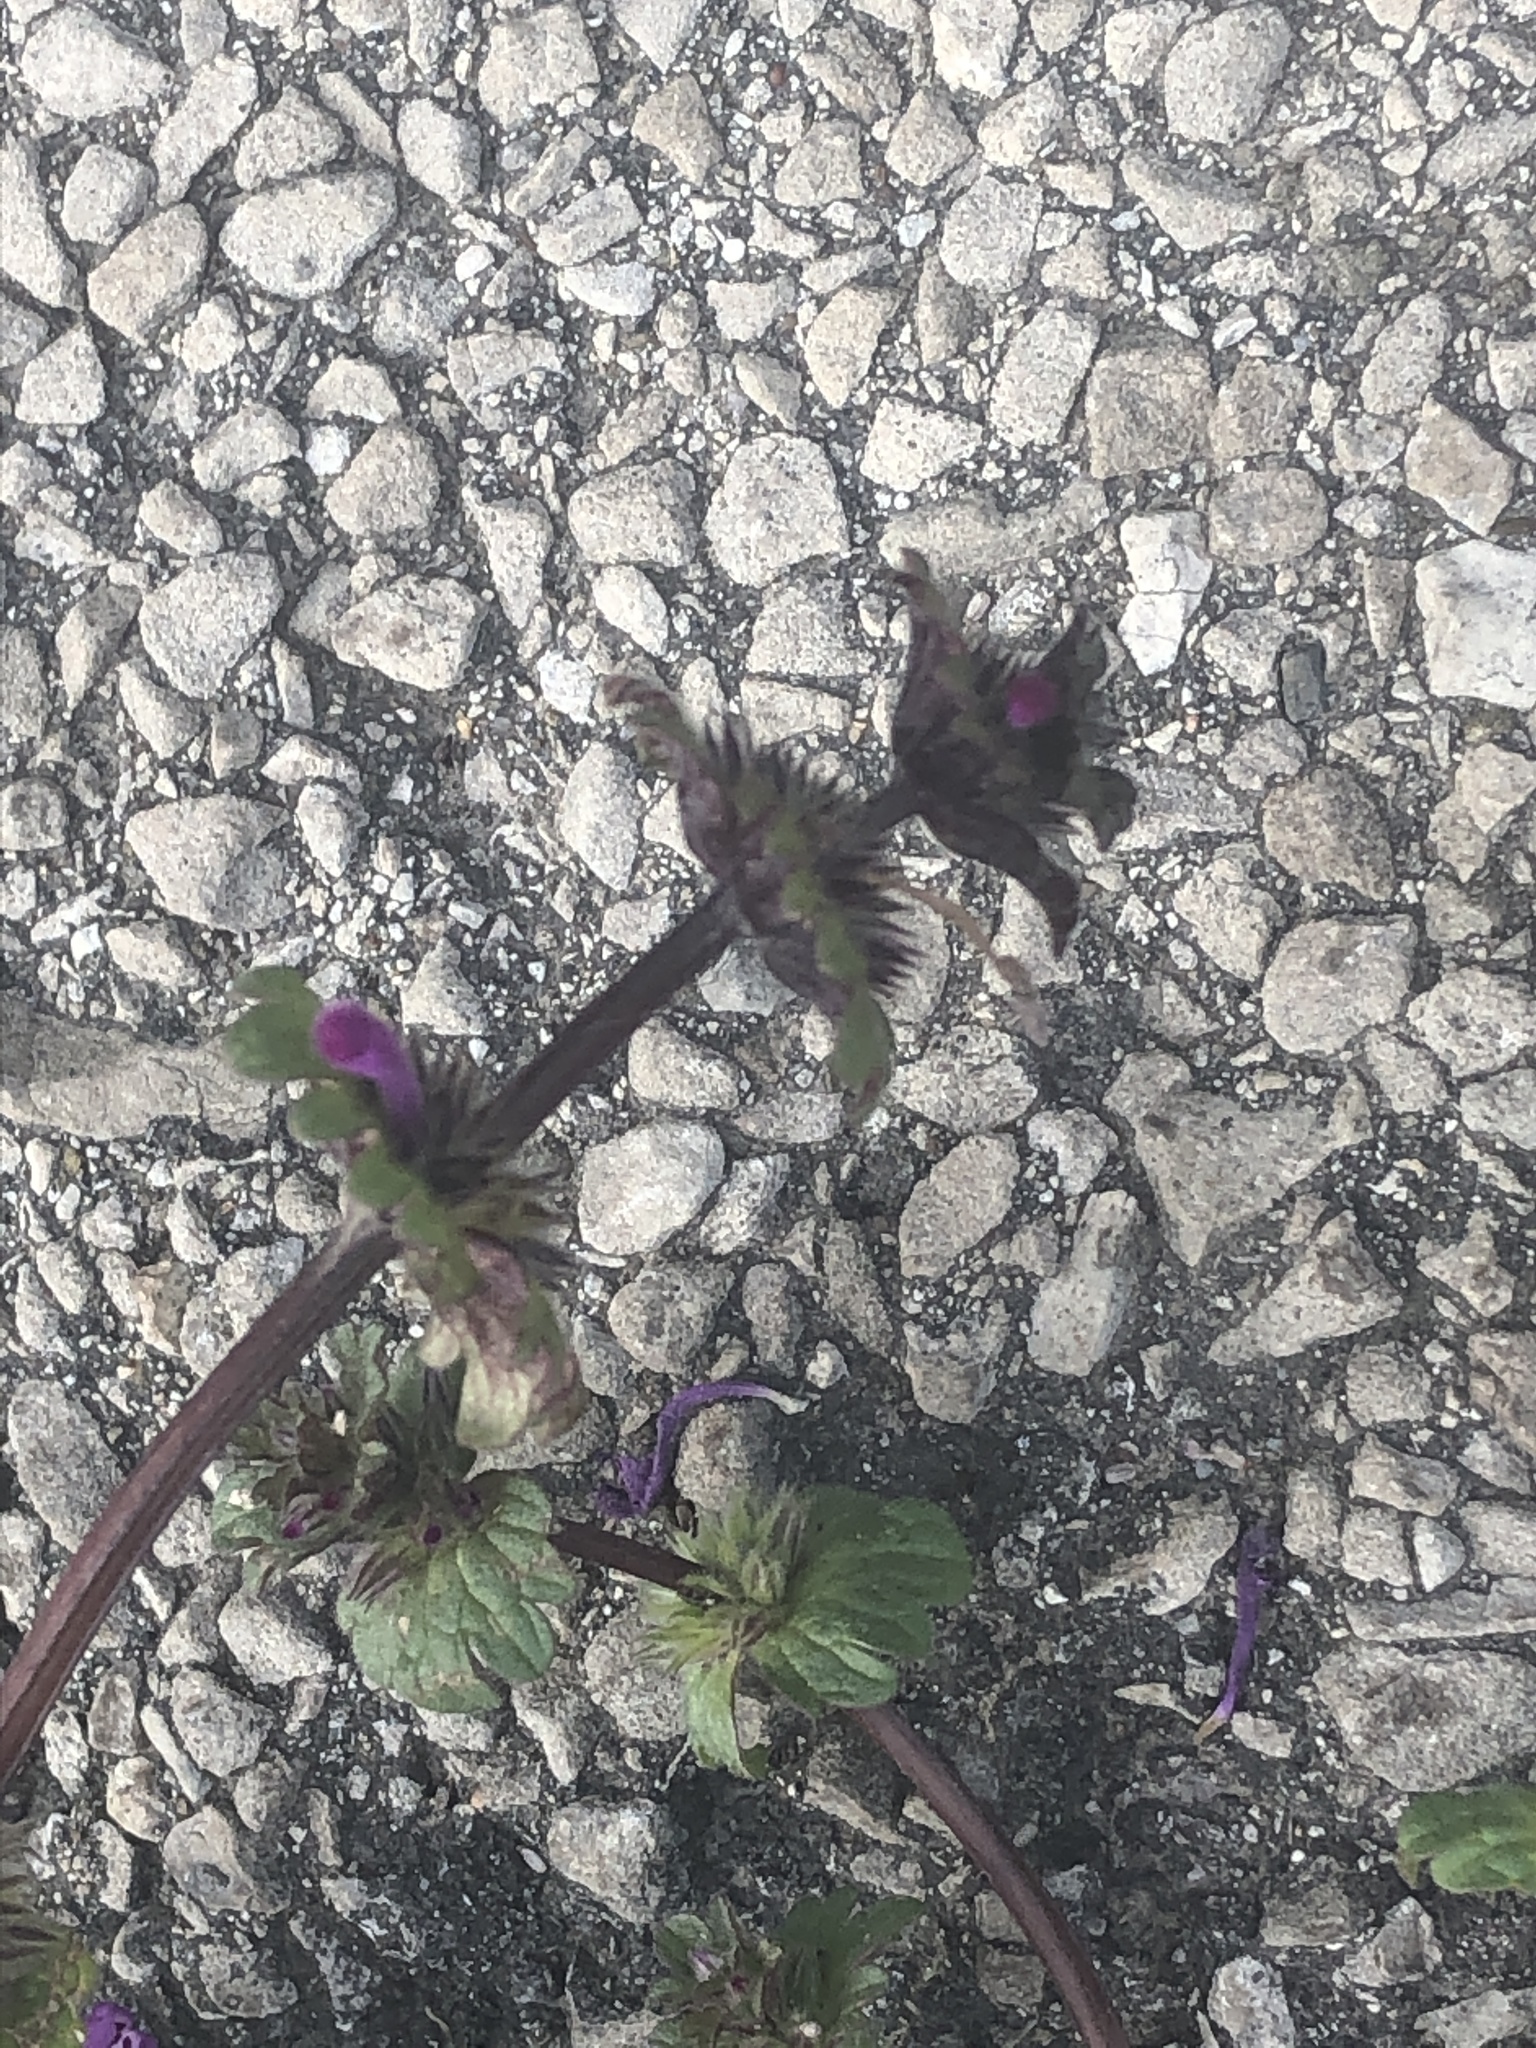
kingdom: Plantae
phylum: Tracheophyta
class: Magnoliopsida
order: Lamiales
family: Lamiaceae
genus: Lamium
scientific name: Lamium amplexicaule
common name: Henbit dead-nettle
